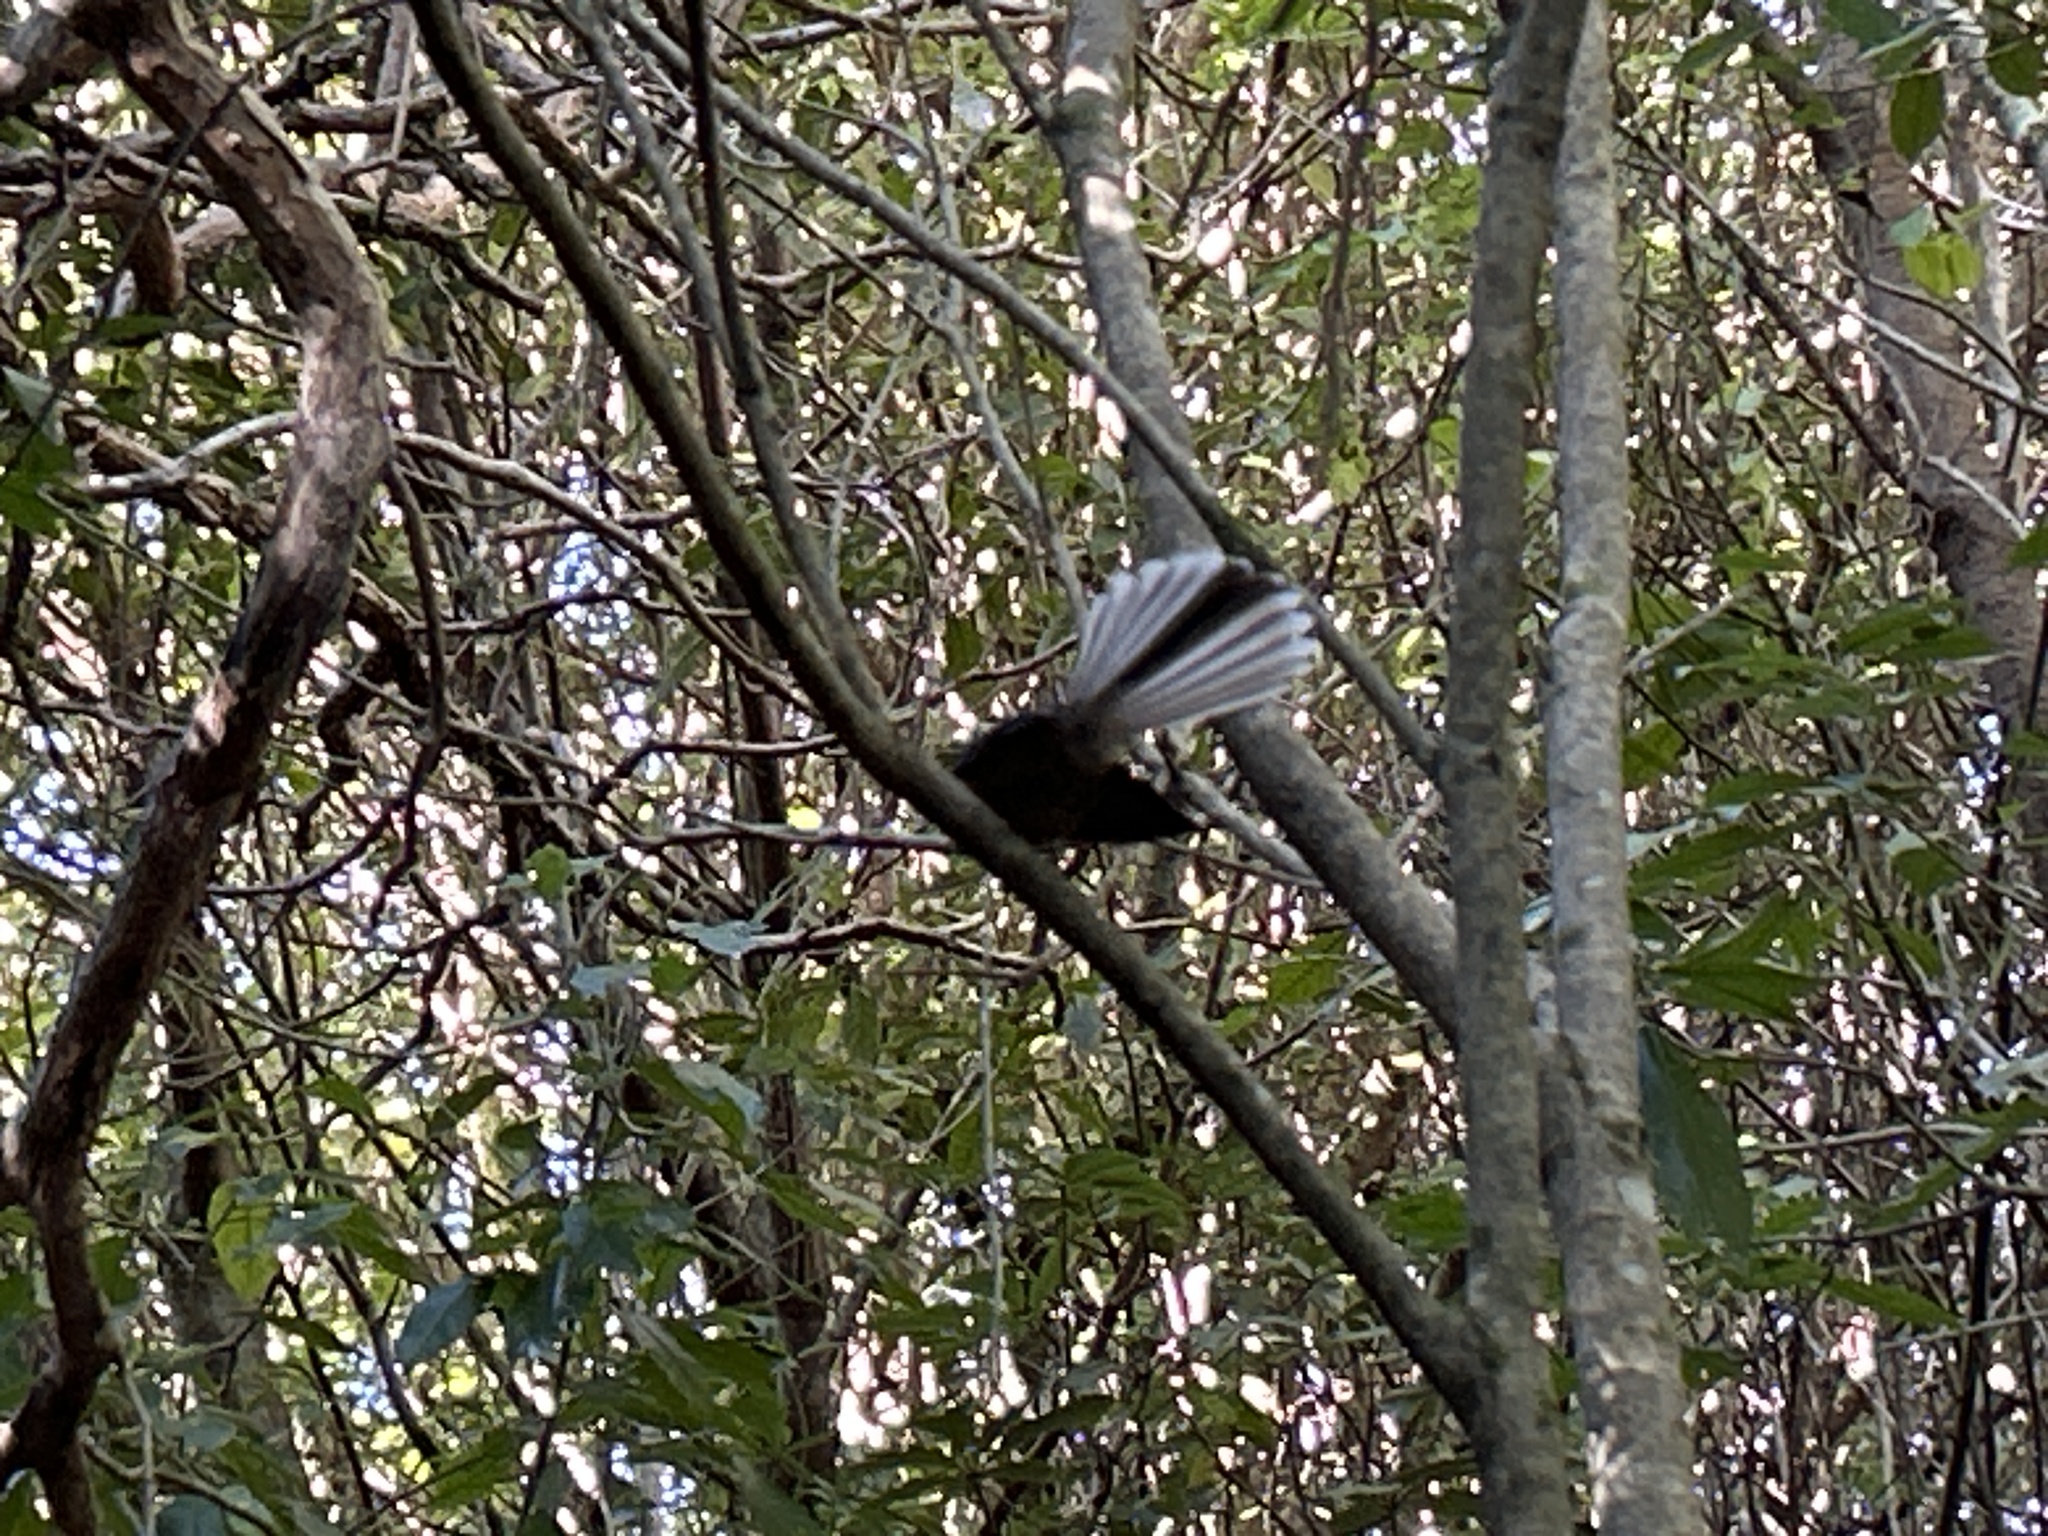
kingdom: Animalia
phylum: Chordata
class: Aves
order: Passeriformes
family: Rhipiduridae
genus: Rhipidura
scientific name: Rhipidura fuliginosa
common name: New zealand fantail
